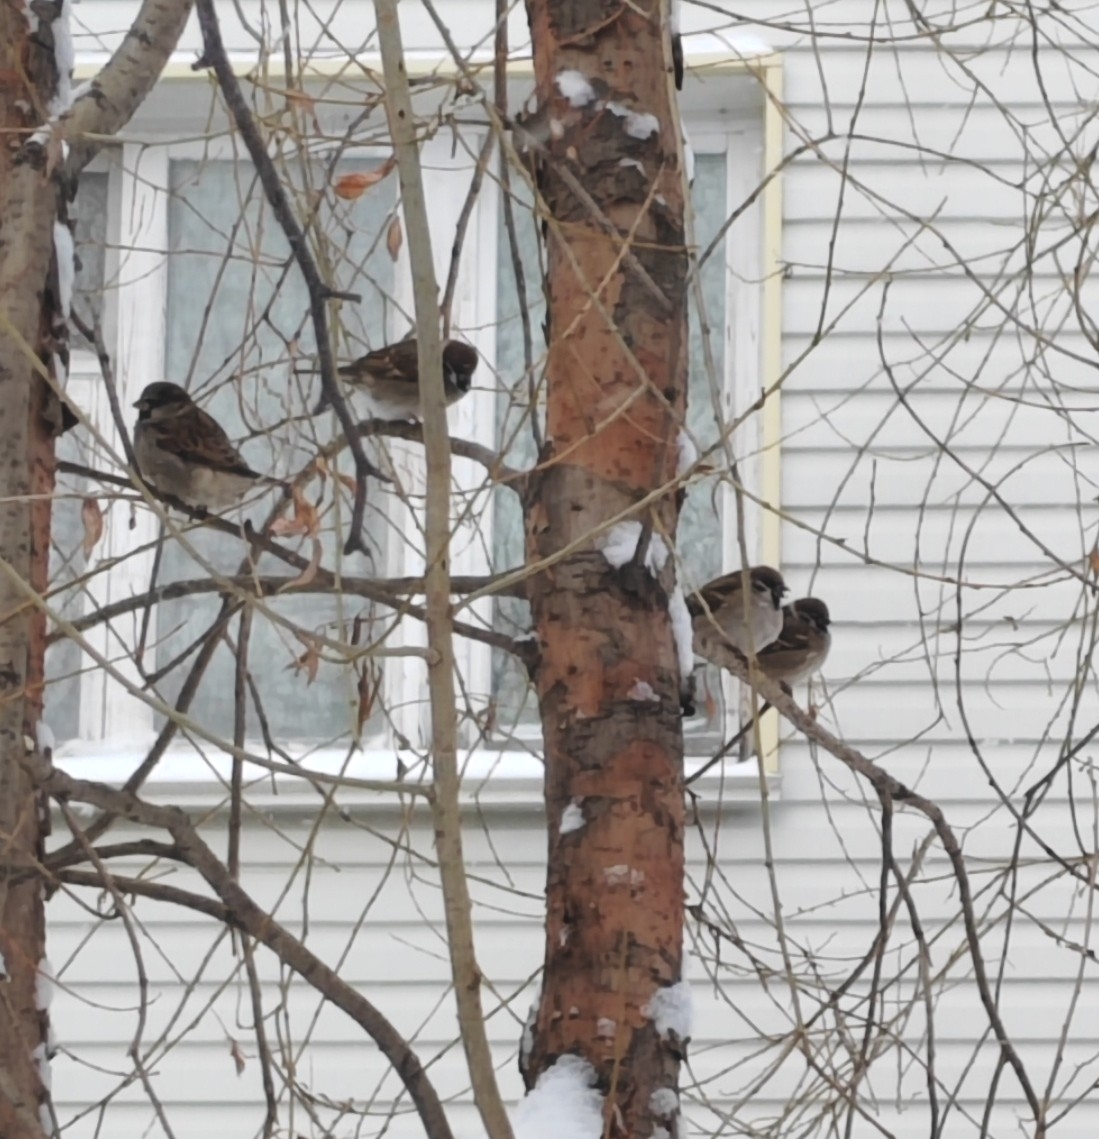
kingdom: Animalia
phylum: Chordata
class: Aves
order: Passeriformes
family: Passeridae
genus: Passer
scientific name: Passer montanus
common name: Eurasian tree sparrow
